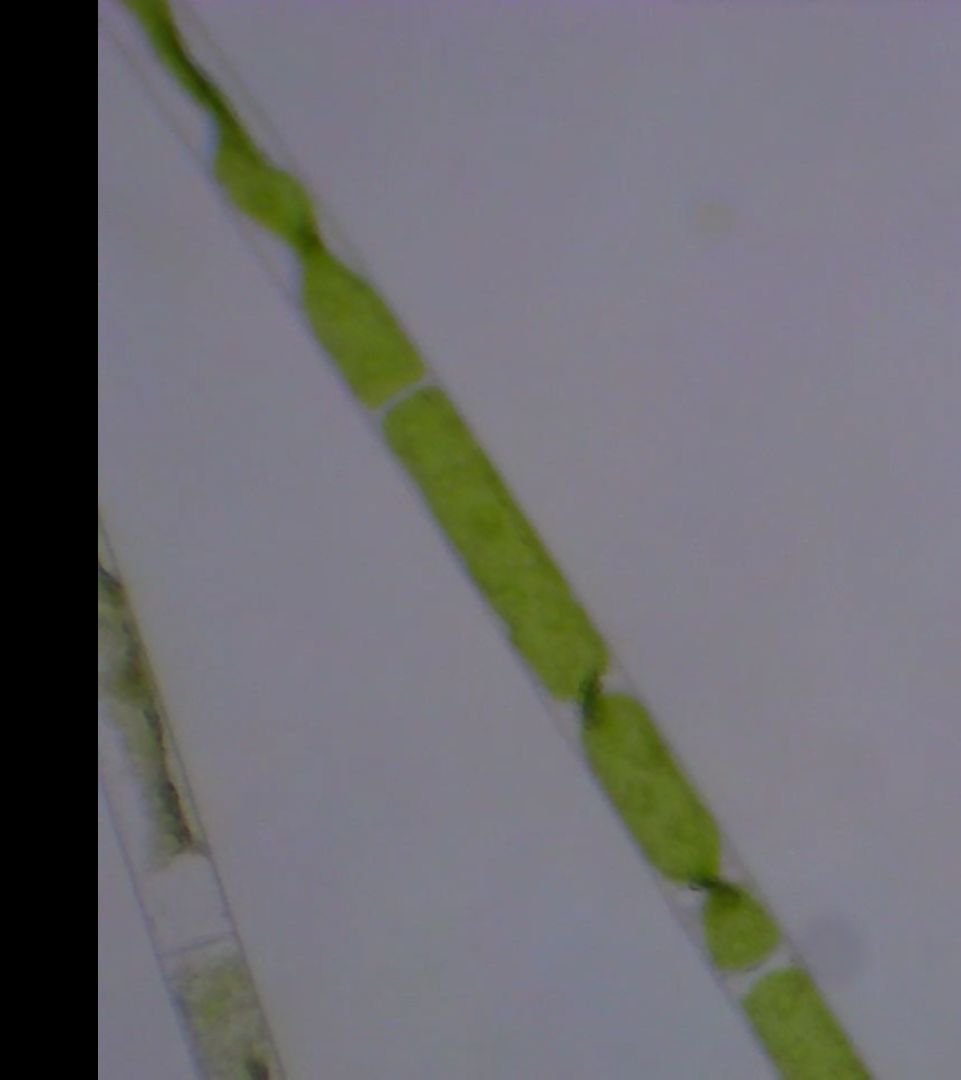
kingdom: Plantae
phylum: Charophyta
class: Zygnematophyceae
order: Zygnematales
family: Zygnemataceae
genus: Mougeotia
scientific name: Mougeotia
